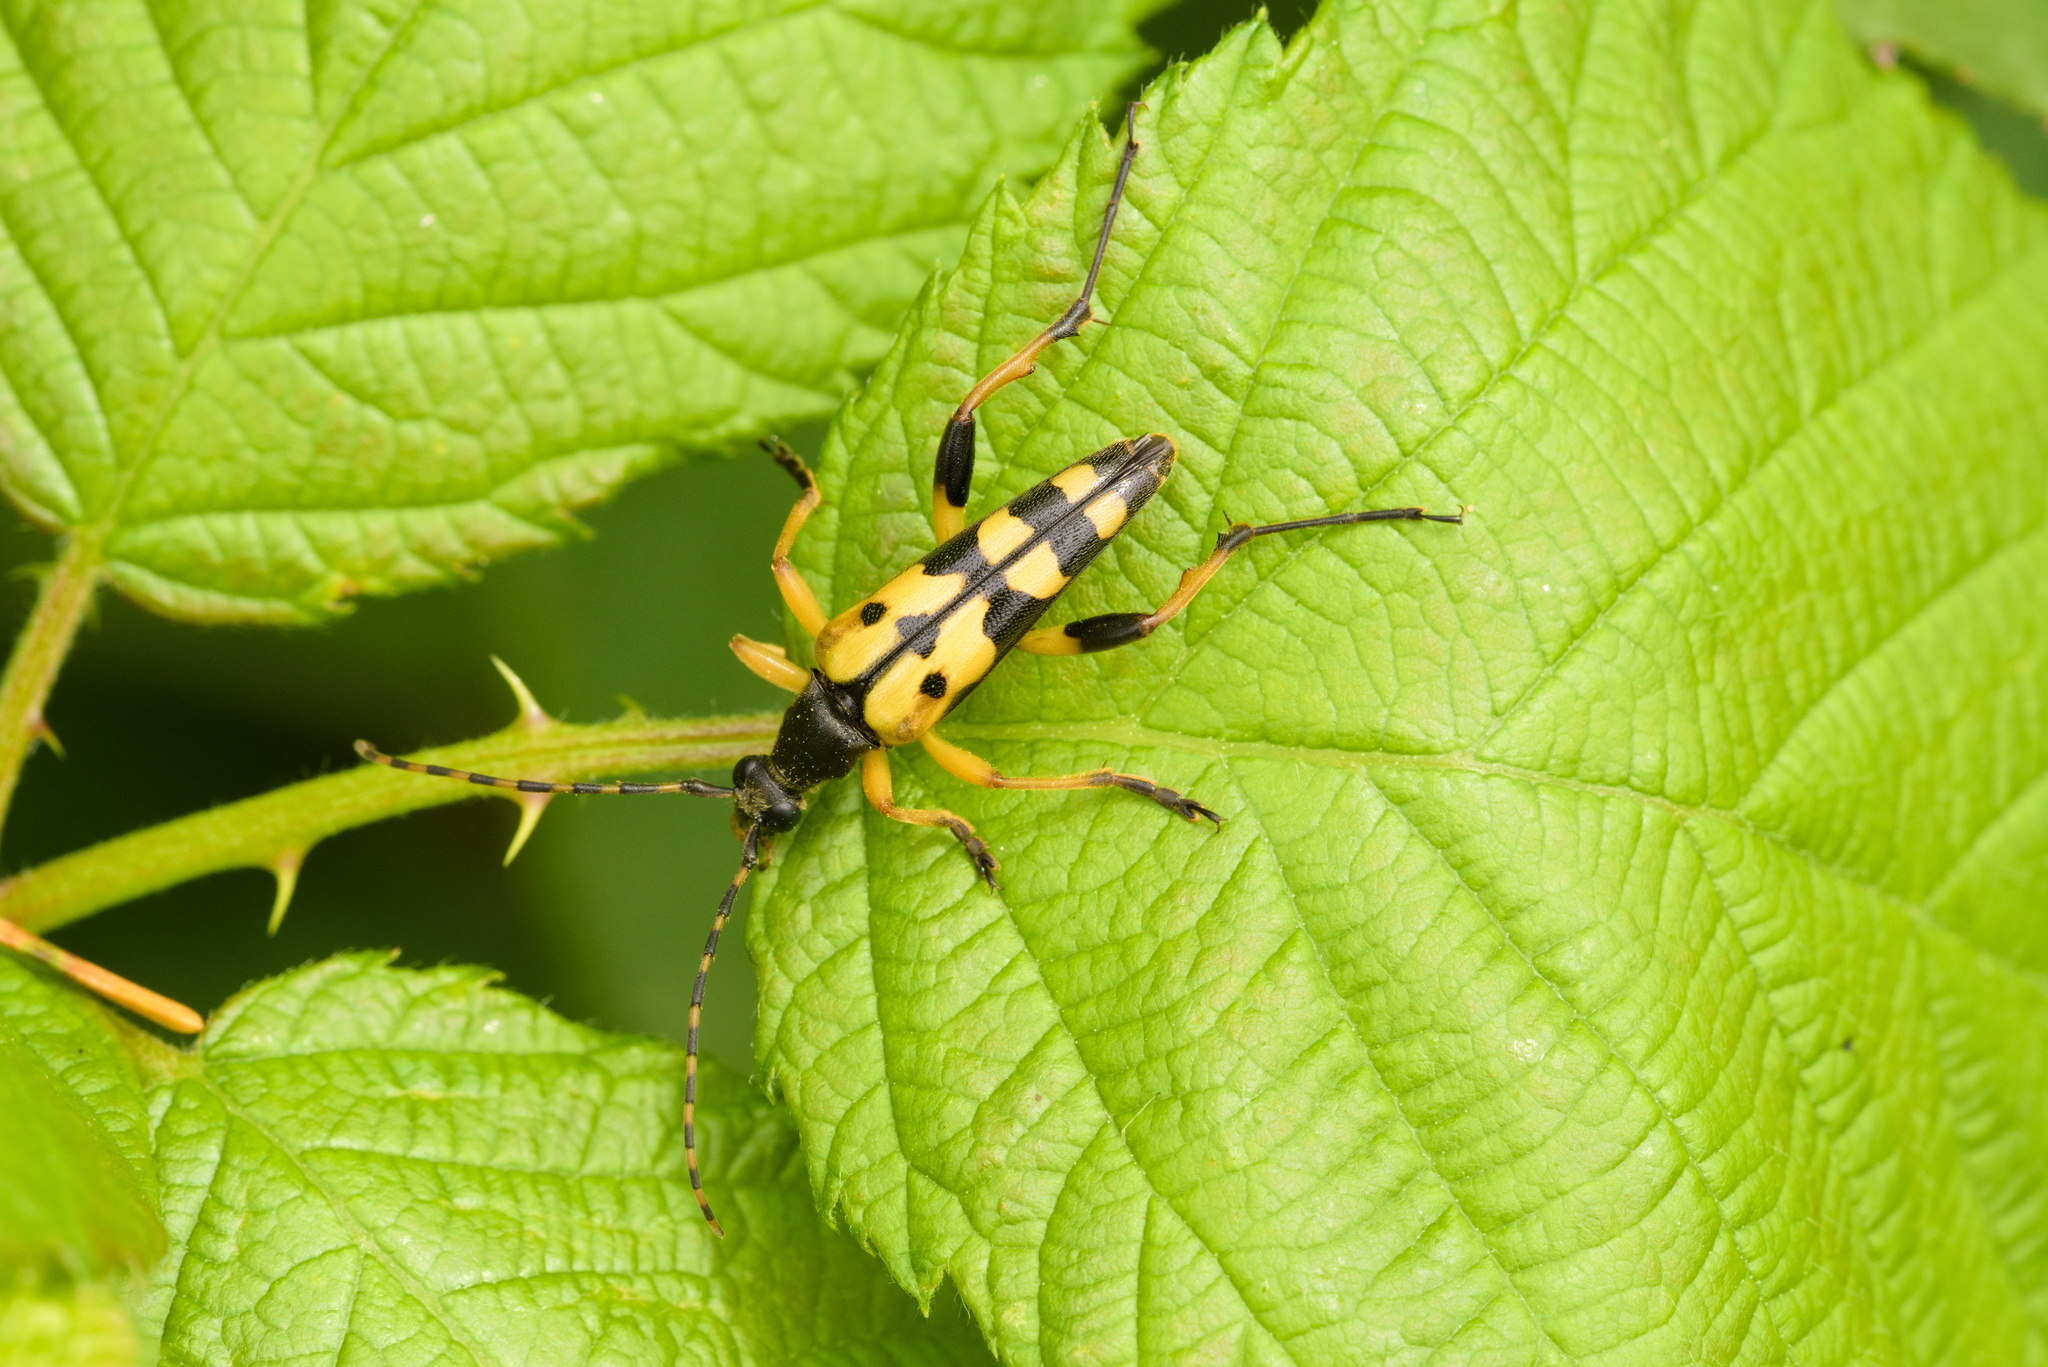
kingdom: Animalia
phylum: Arthropoda
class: Insecta
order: Coleoptera
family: Cerambycidae
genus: Rutpela
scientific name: Rutpela maculata
